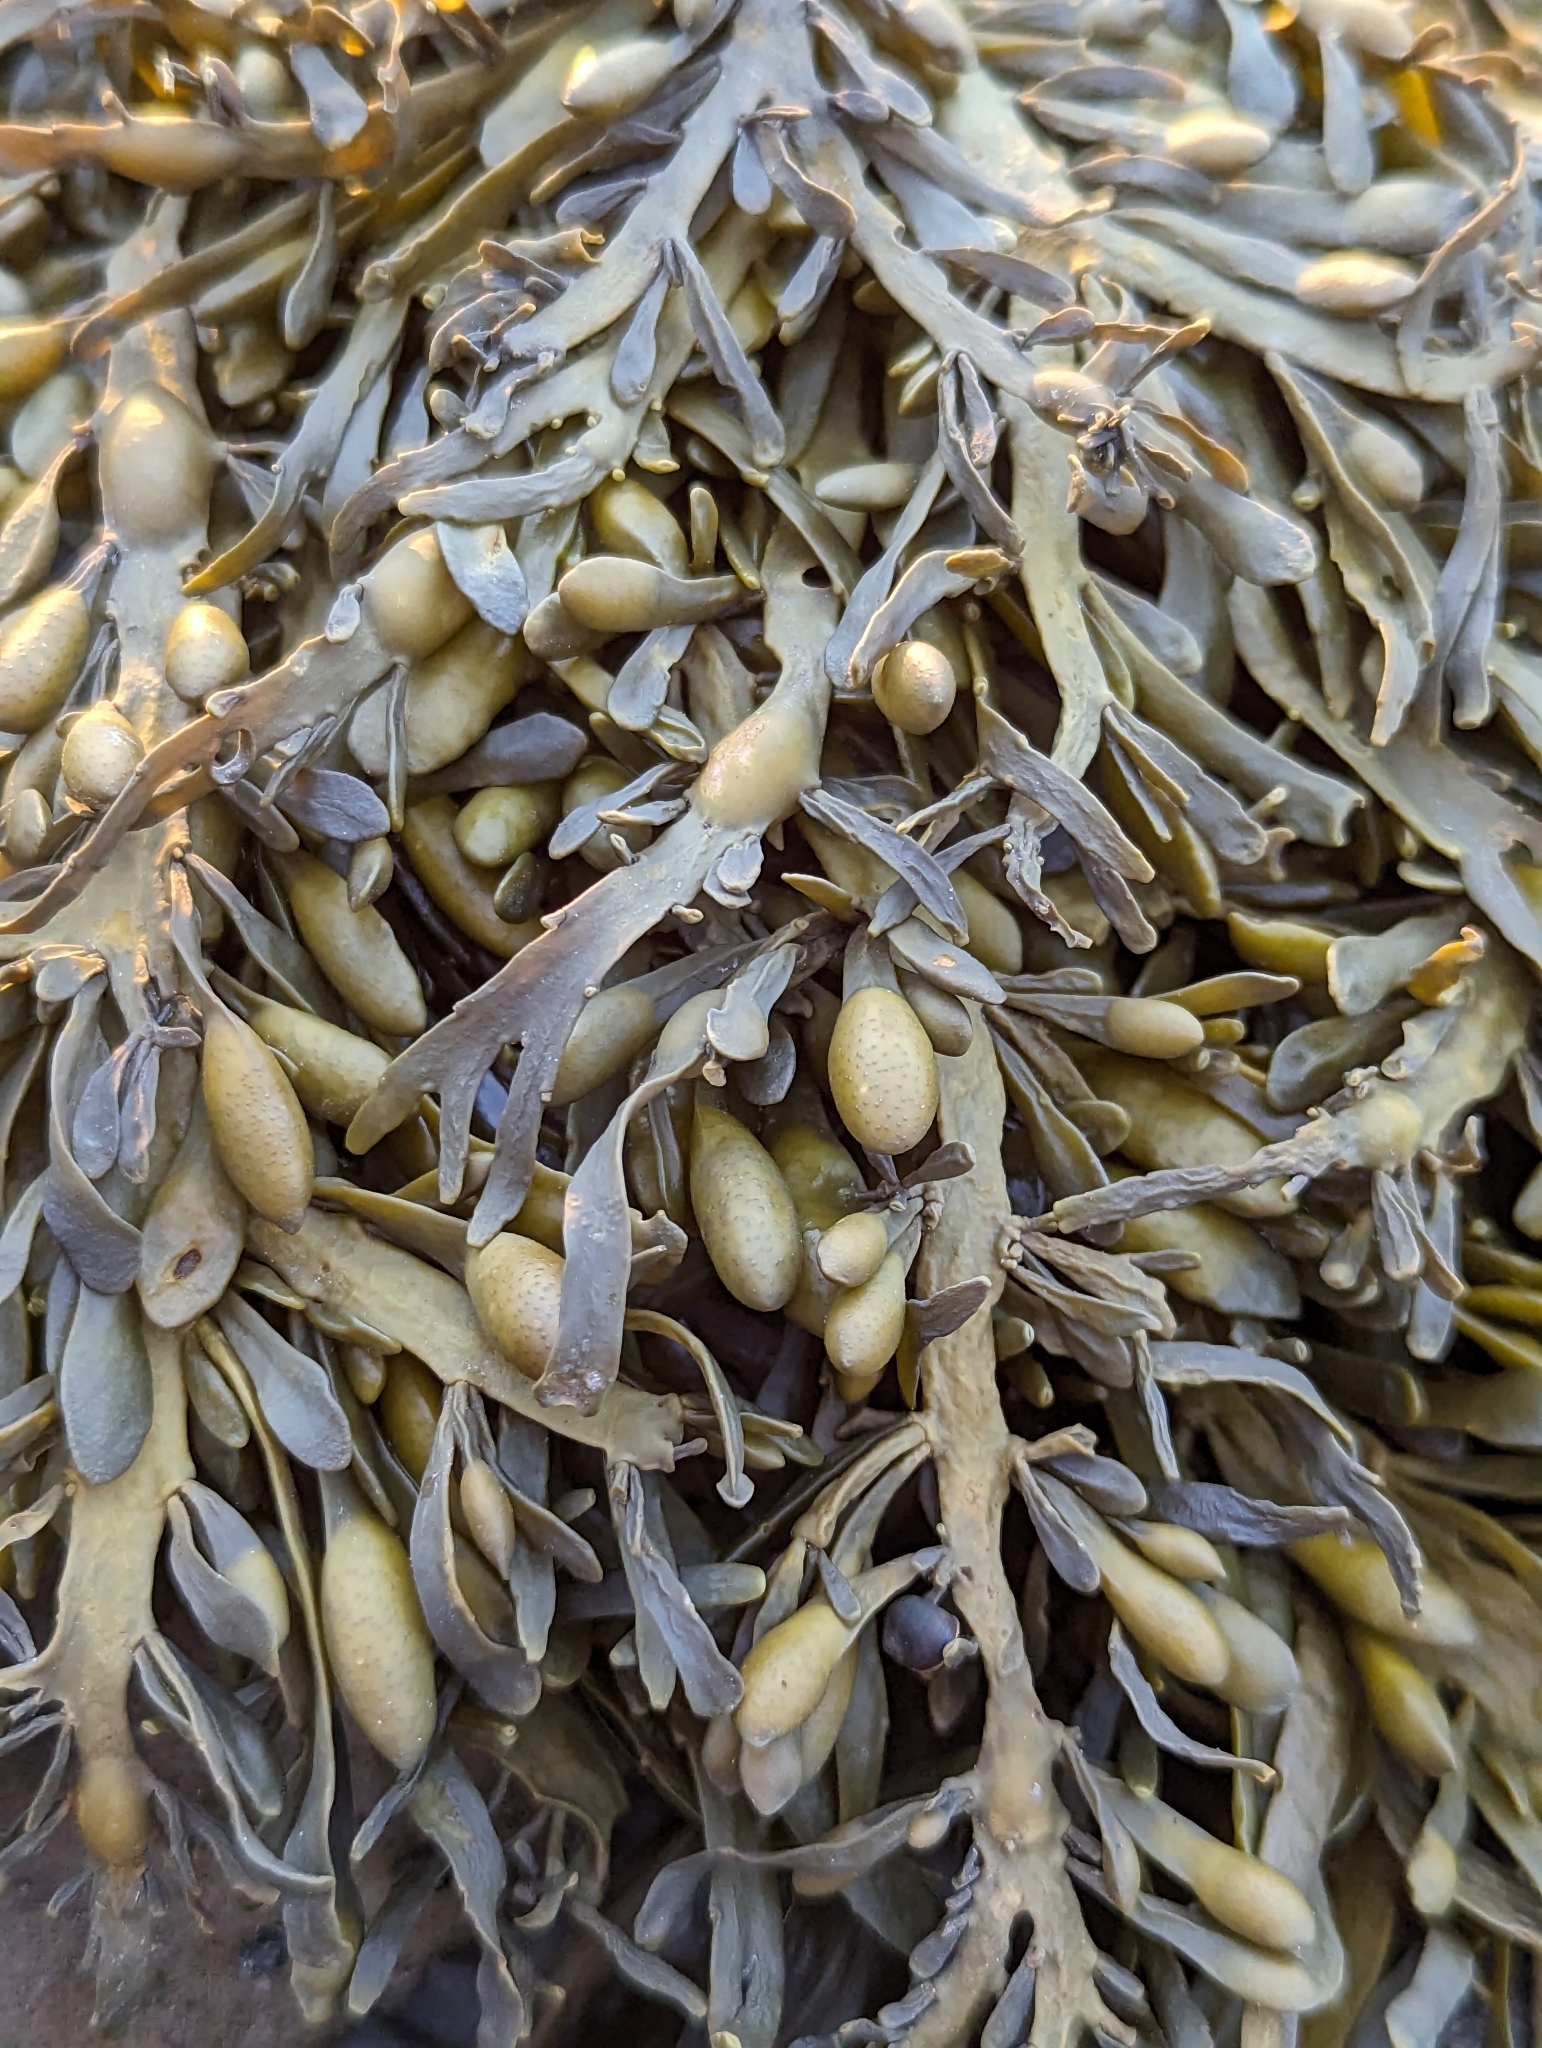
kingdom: Chromista
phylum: Ochrophyta
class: Phaeophyceae
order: Fucales
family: Fucaceae
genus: Ascophyllum
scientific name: Ascophyllum nodosum
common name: Knotted wrack
